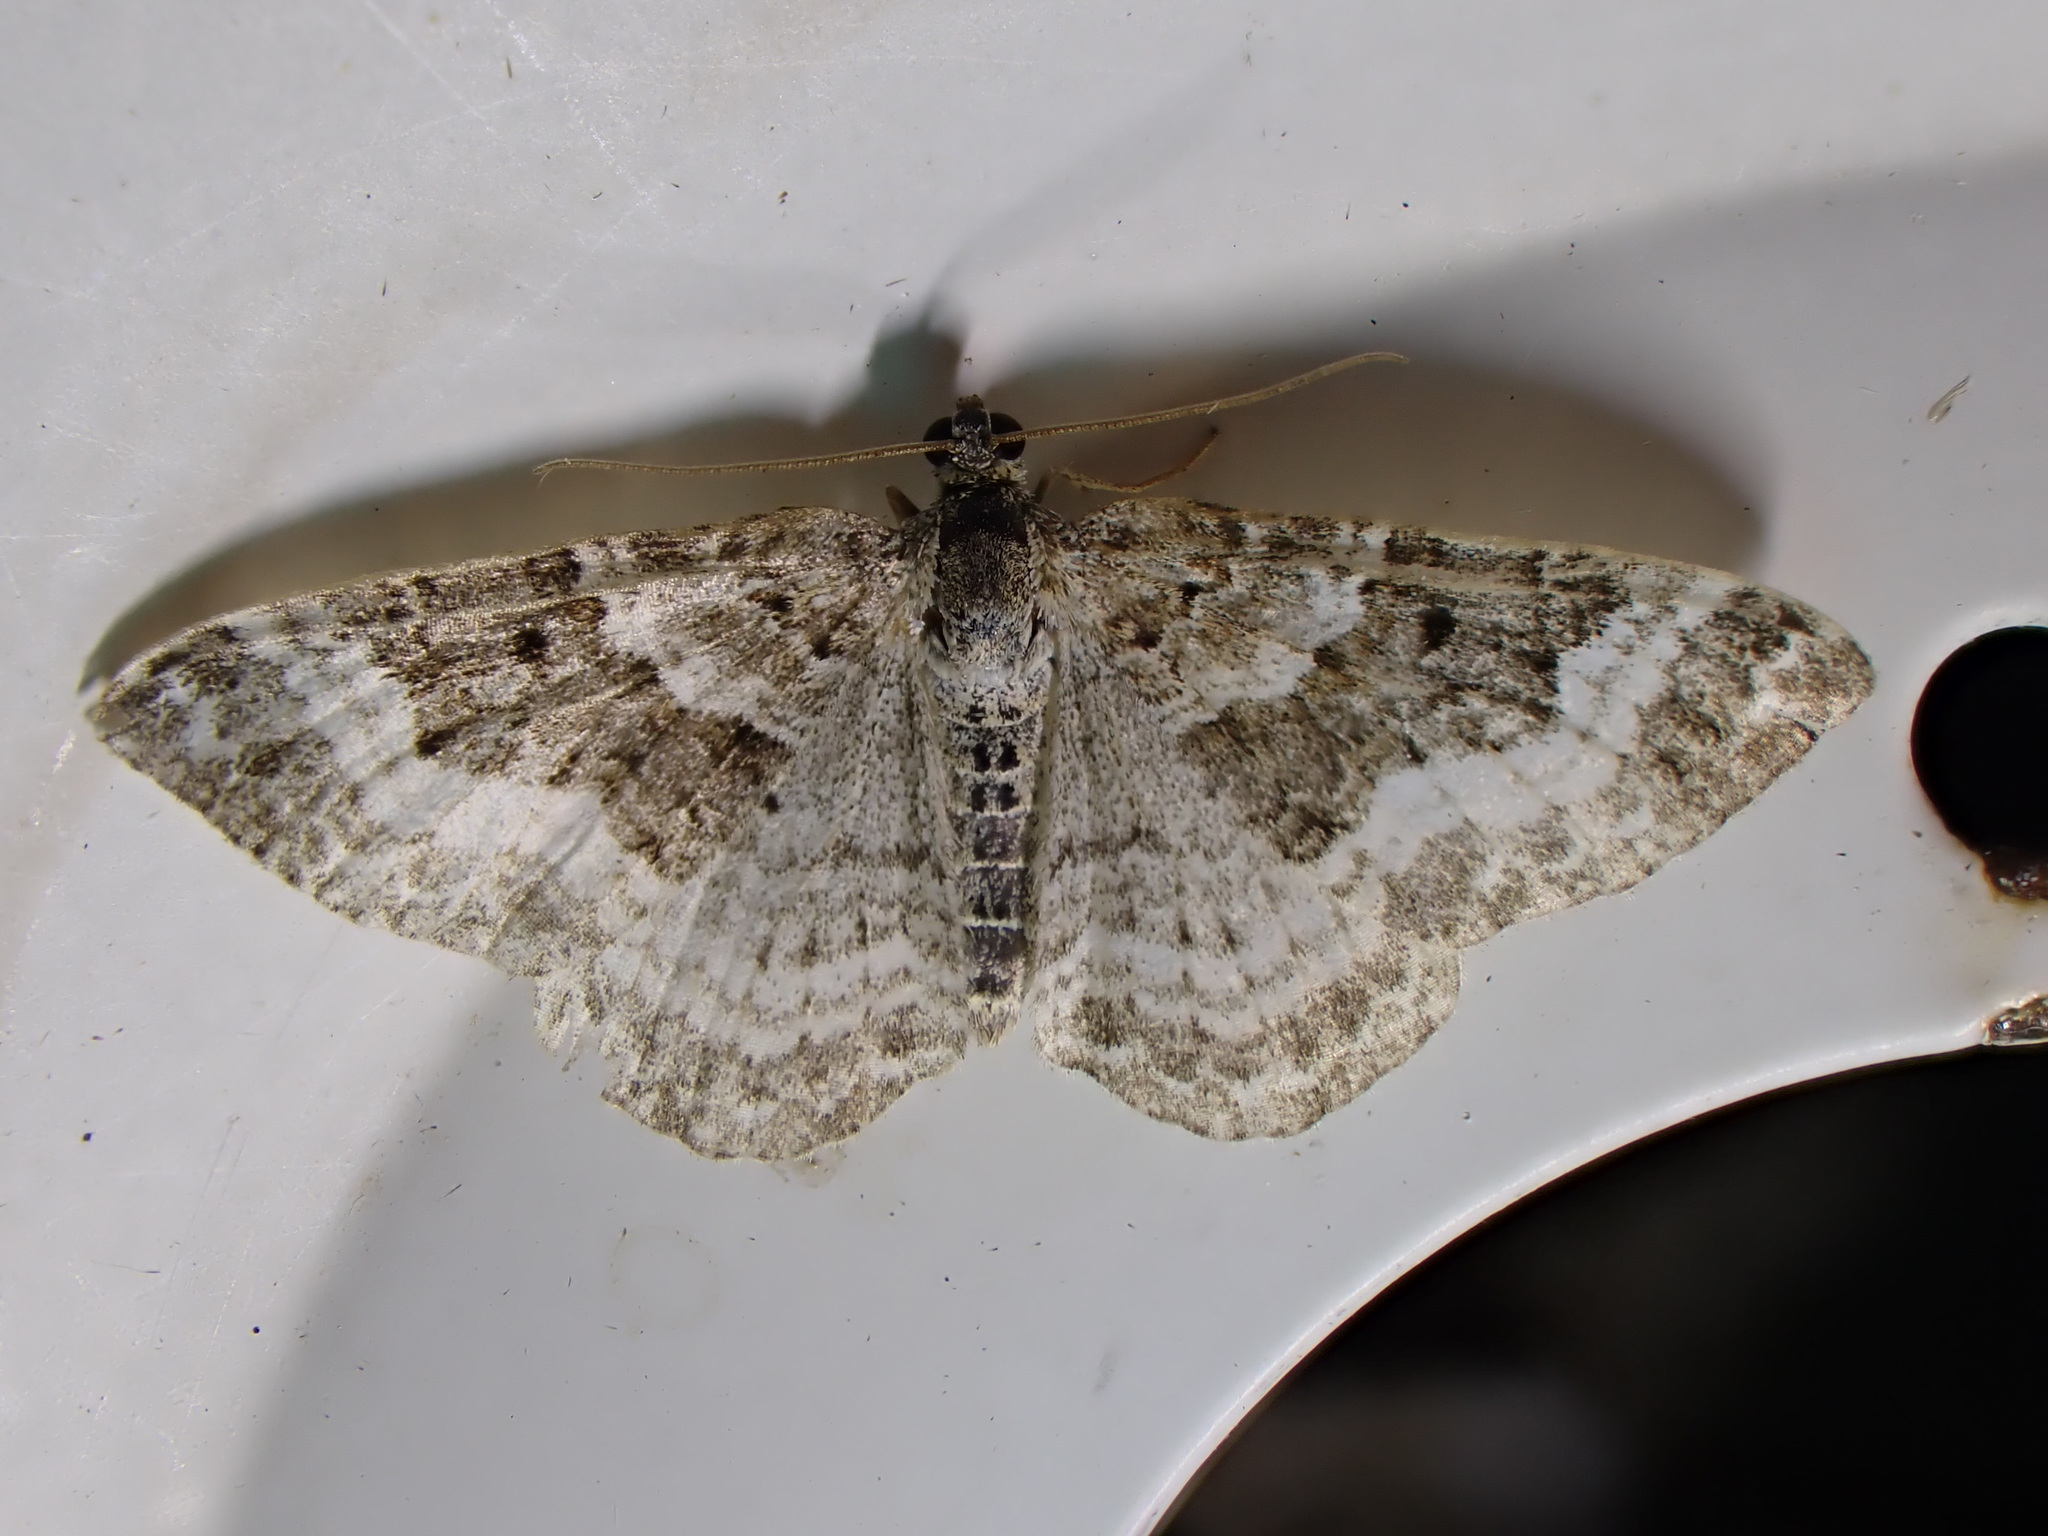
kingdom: Animalia
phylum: Arthropoda
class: Insecta
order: Lepidoptera
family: Geometridae
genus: Epirrhoe
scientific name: Epirrhoe alternata
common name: Common carpet
